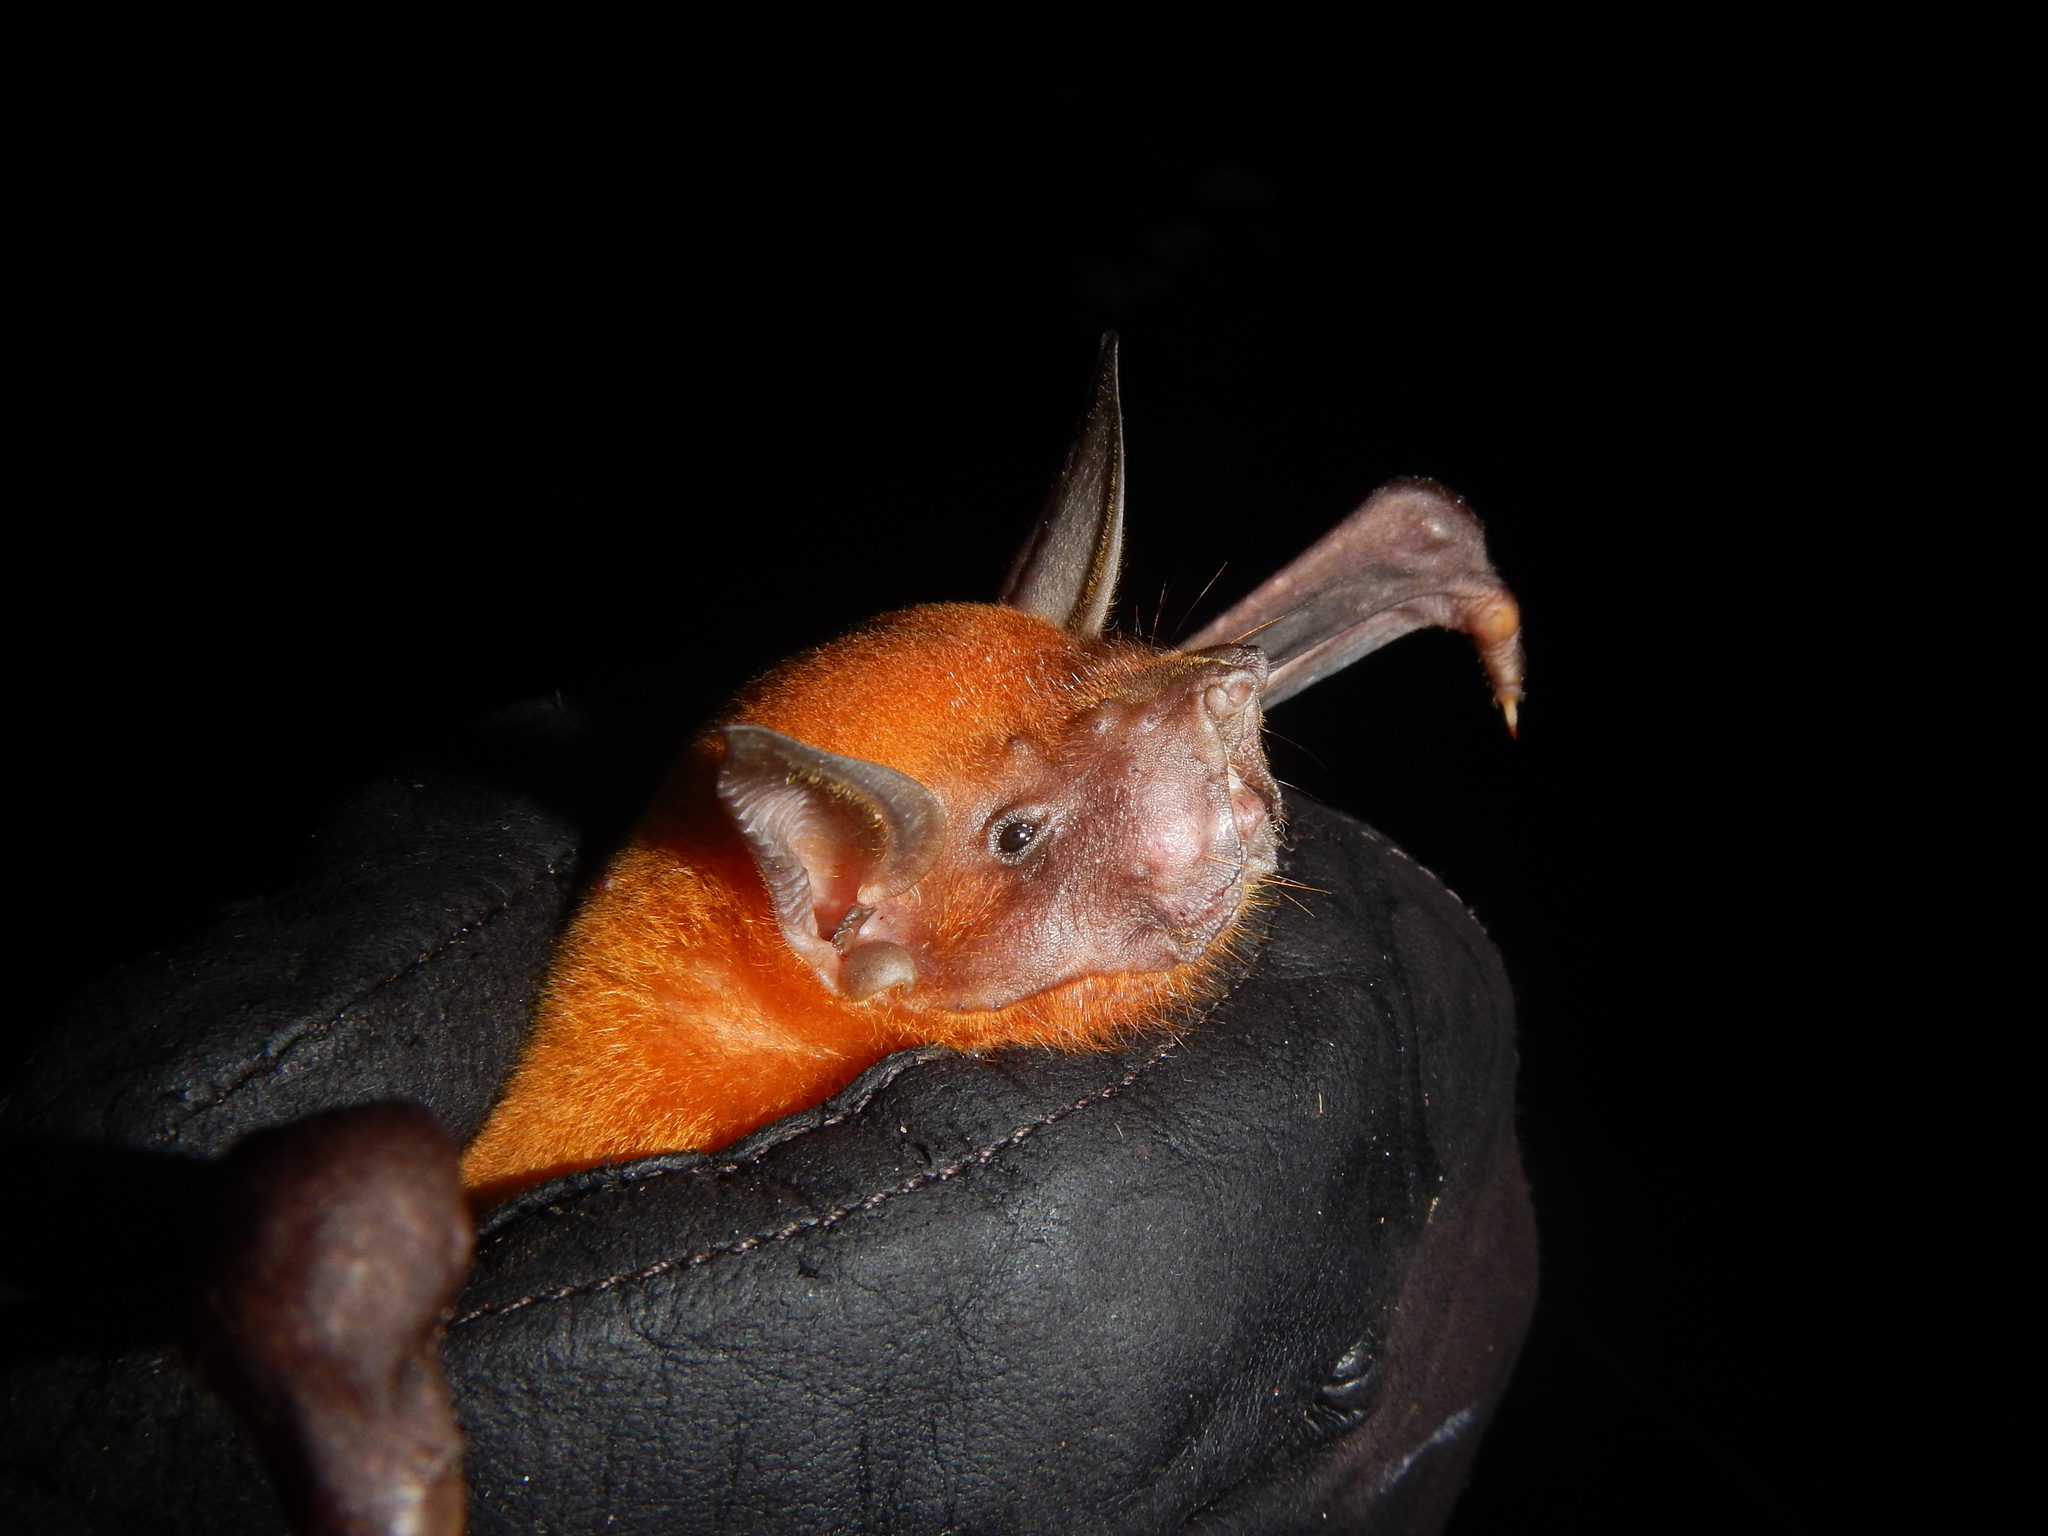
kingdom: Animalia
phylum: Chordata
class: Mammalia
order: Chiroptera
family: Noctilionidae
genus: Noctilio
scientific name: Noctilio leporinus
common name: Greater bulldog bat
